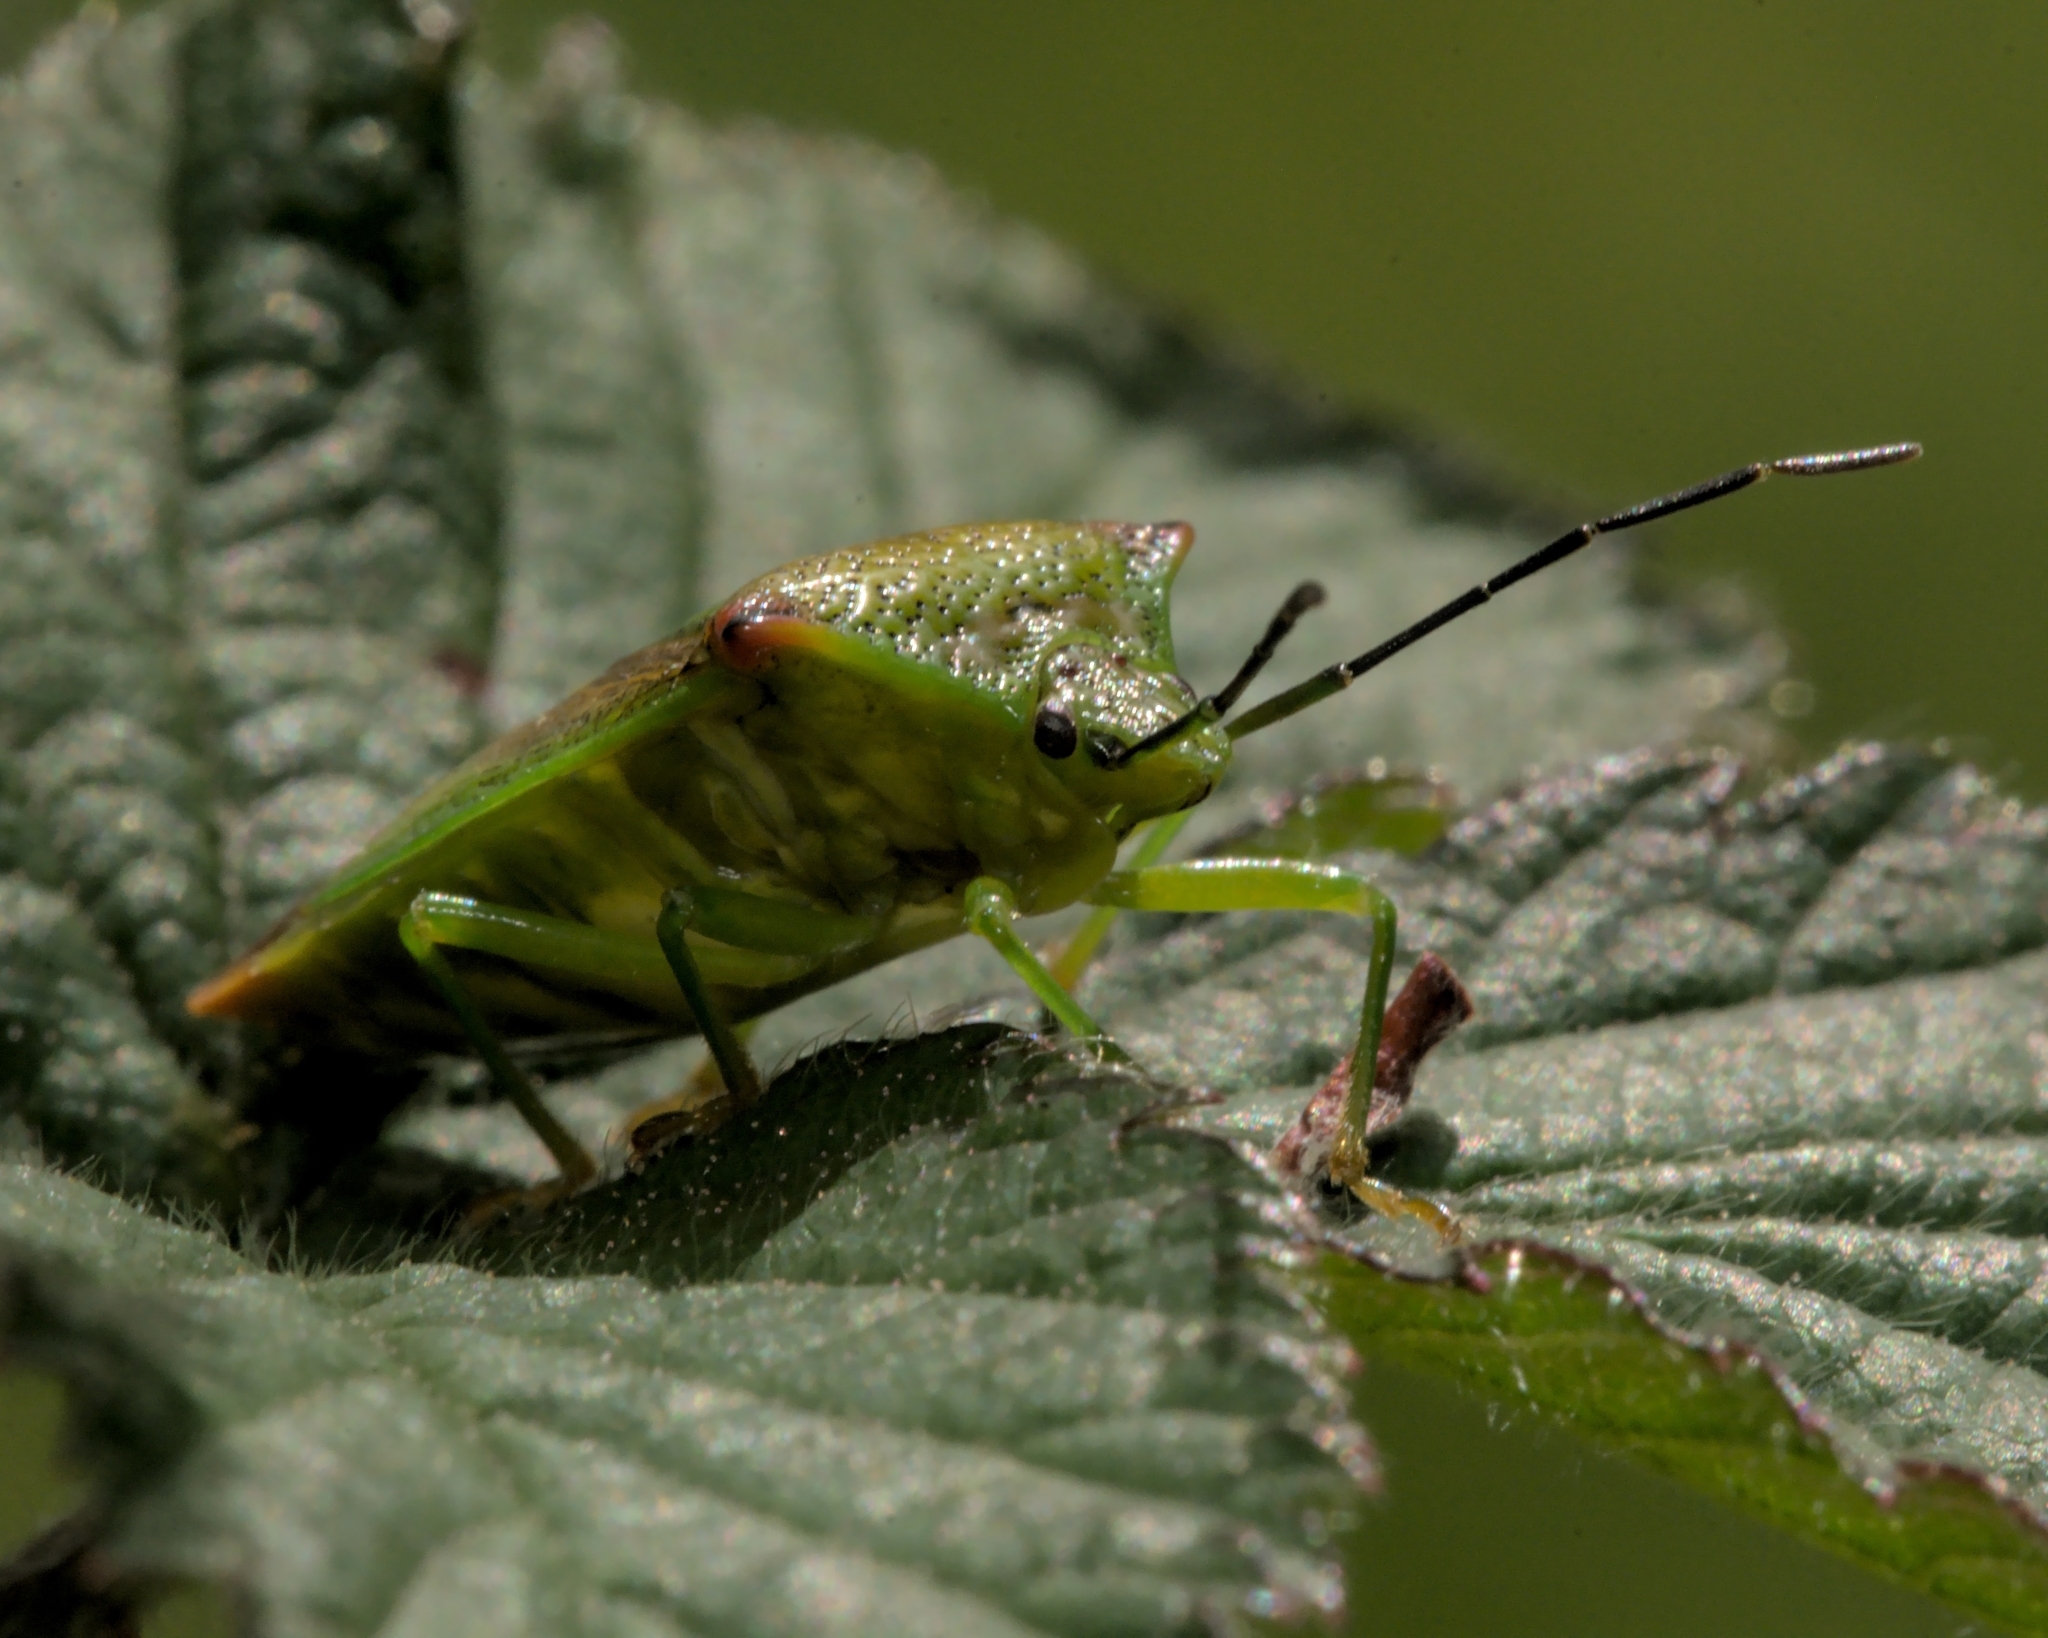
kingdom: Animalia
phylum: Arthropoda
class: Insecta
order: Hemiptera
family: Acanthosomatidae
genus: Acanthosoma
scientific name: Acanthosoma haemorrhoidale
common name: Hawthorn shieldbug
